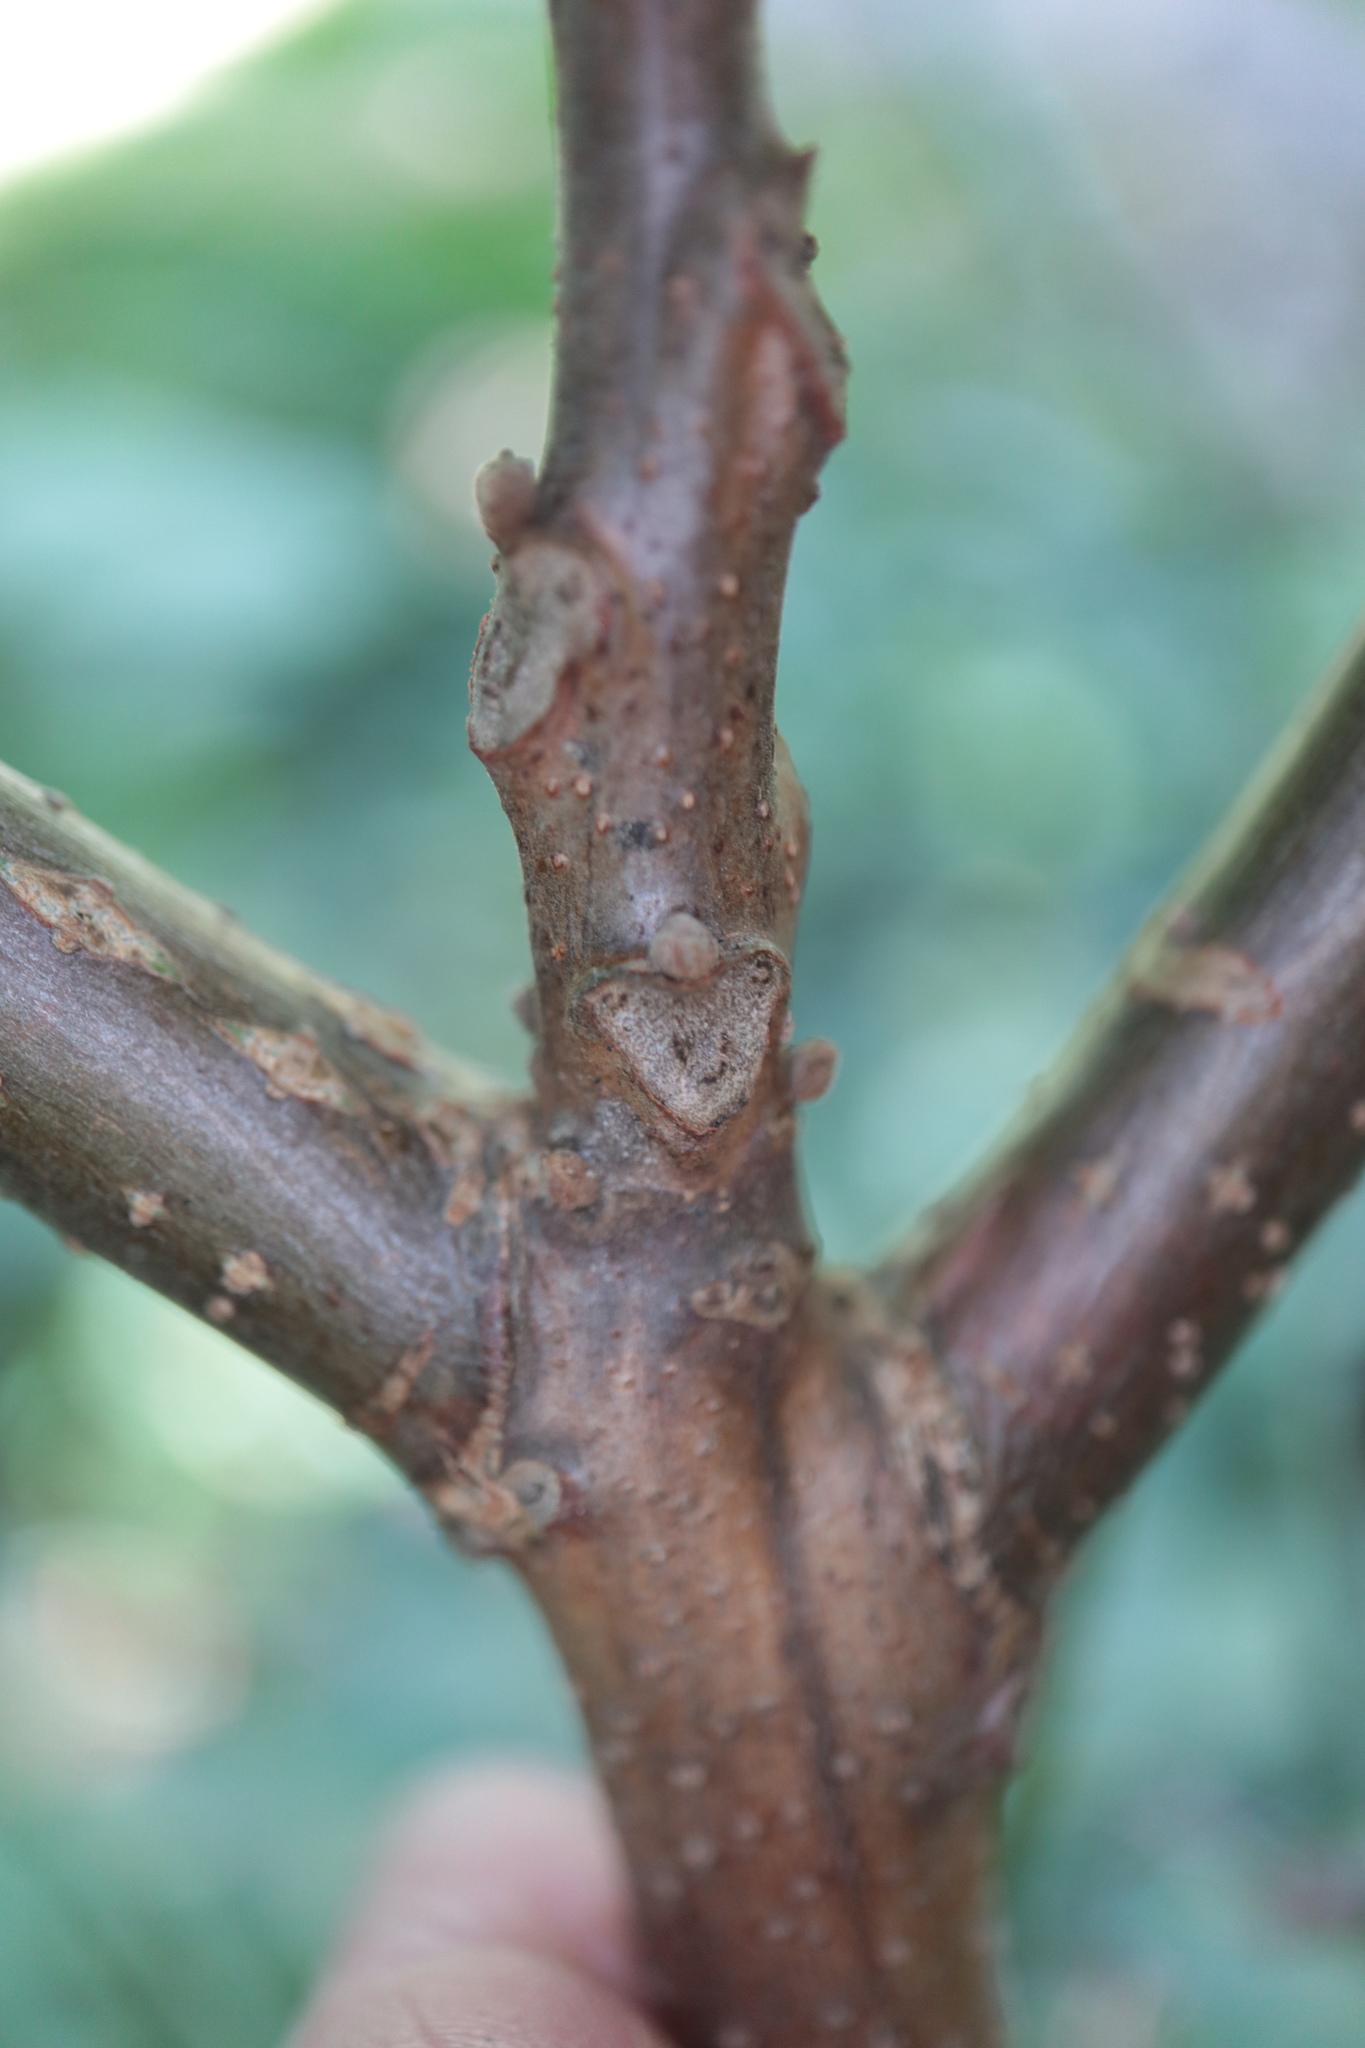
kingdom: Plantae
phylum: Tracheophyta
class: Magnoliopsida
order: Fagales
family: Juglandaceae
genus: Juglans
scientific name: Juglans nigra
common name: Black walnut
